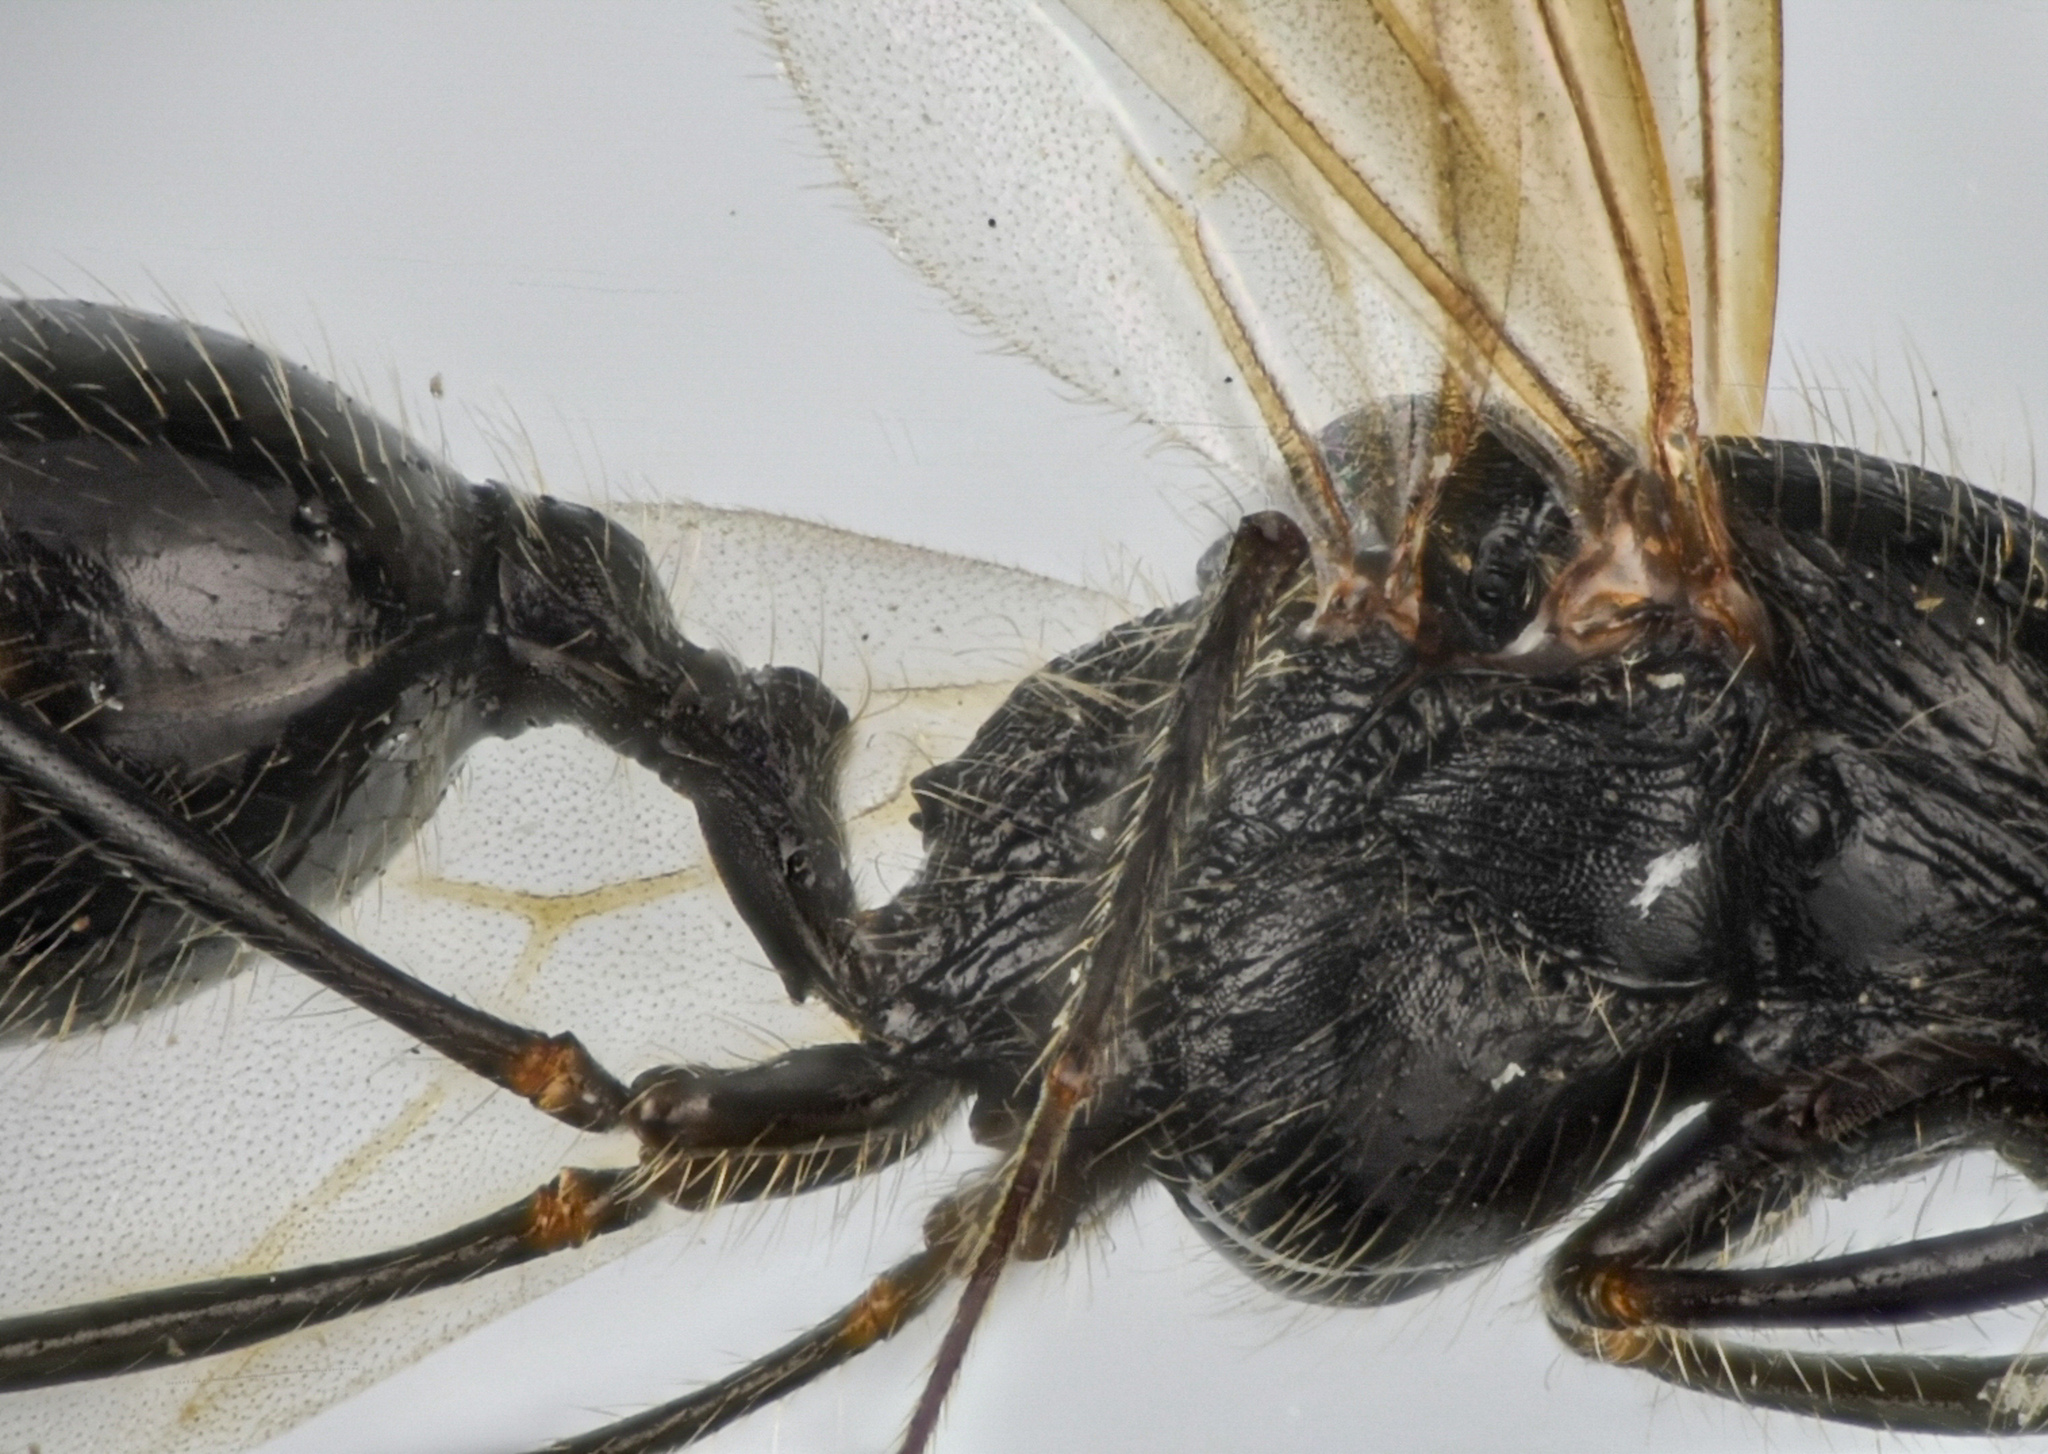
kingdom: Animalia
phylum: Arthropoda
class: Insecta
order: Hymenoptera
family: Formicidae
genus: Veromessor
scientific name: Veromessor andrei
